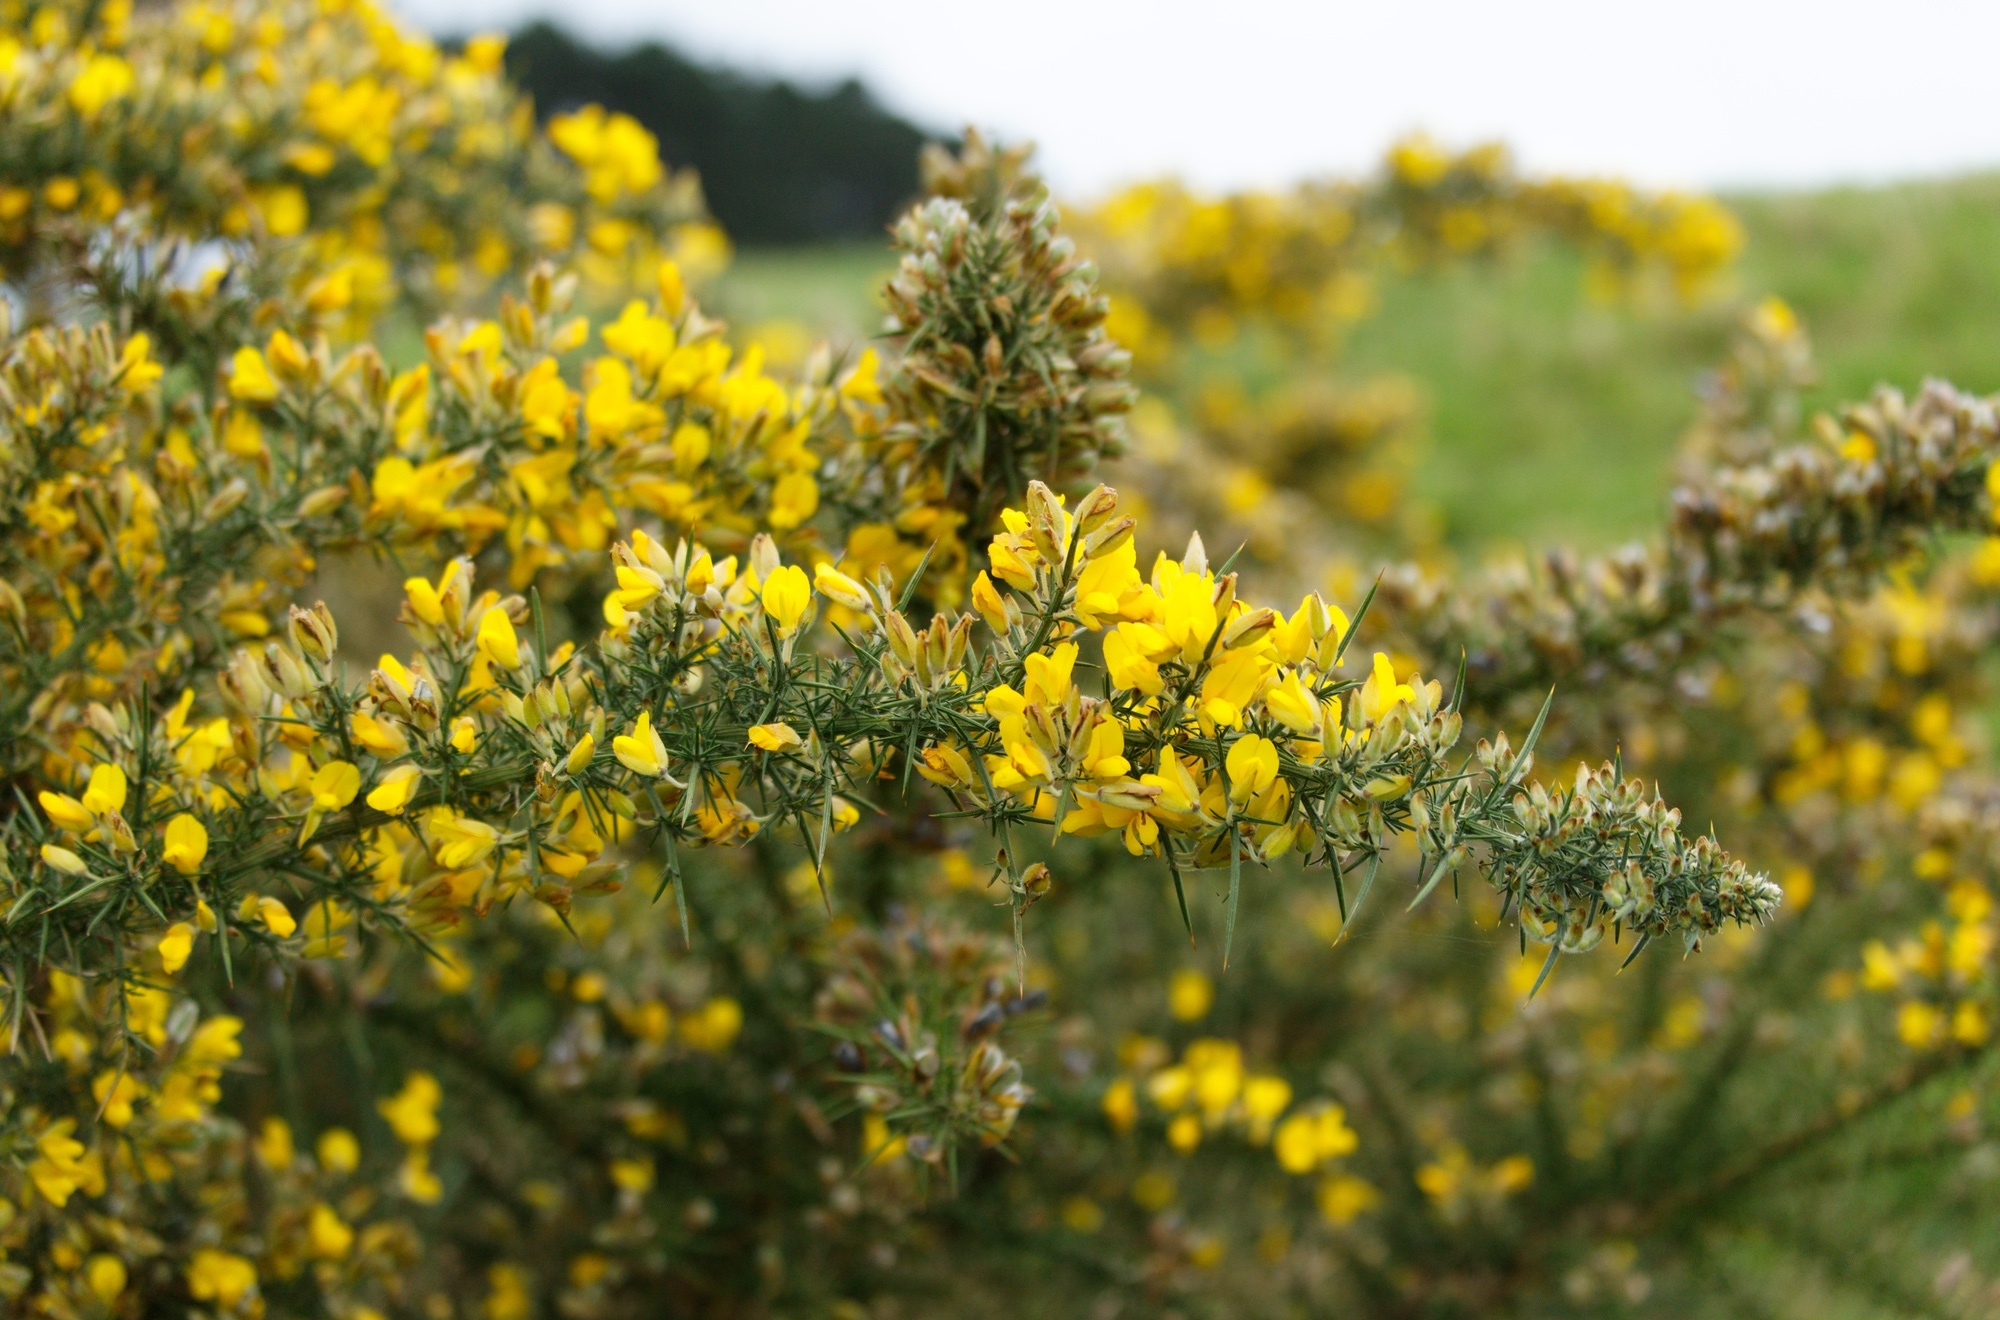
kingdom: Plantae
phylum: Tracheophyta
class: Magnoliopsida
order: Fabales
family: Fabaceae
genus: Ulex
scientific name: Ulex europaeus
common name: Common gorse
